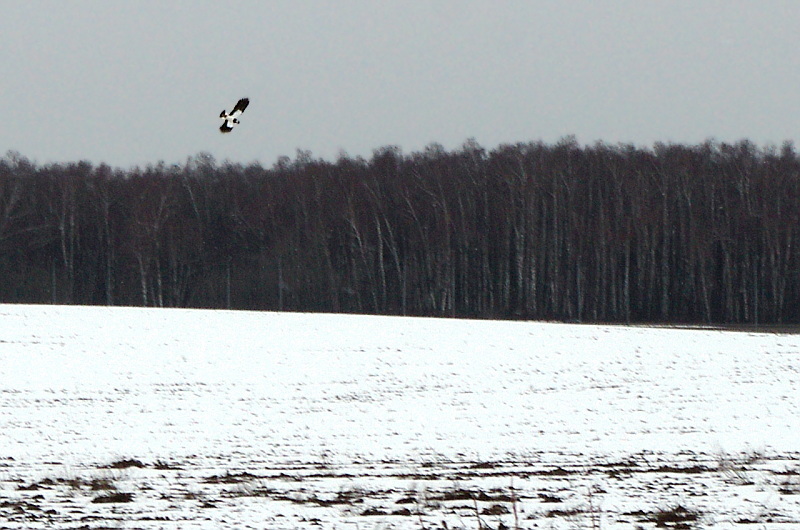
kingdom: Animalia
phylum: Chordata
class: Aves
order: Charadriiformes
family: Charadriidae
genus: Vanellus
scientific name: Vanellus vanellus
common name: Northern lapwing
